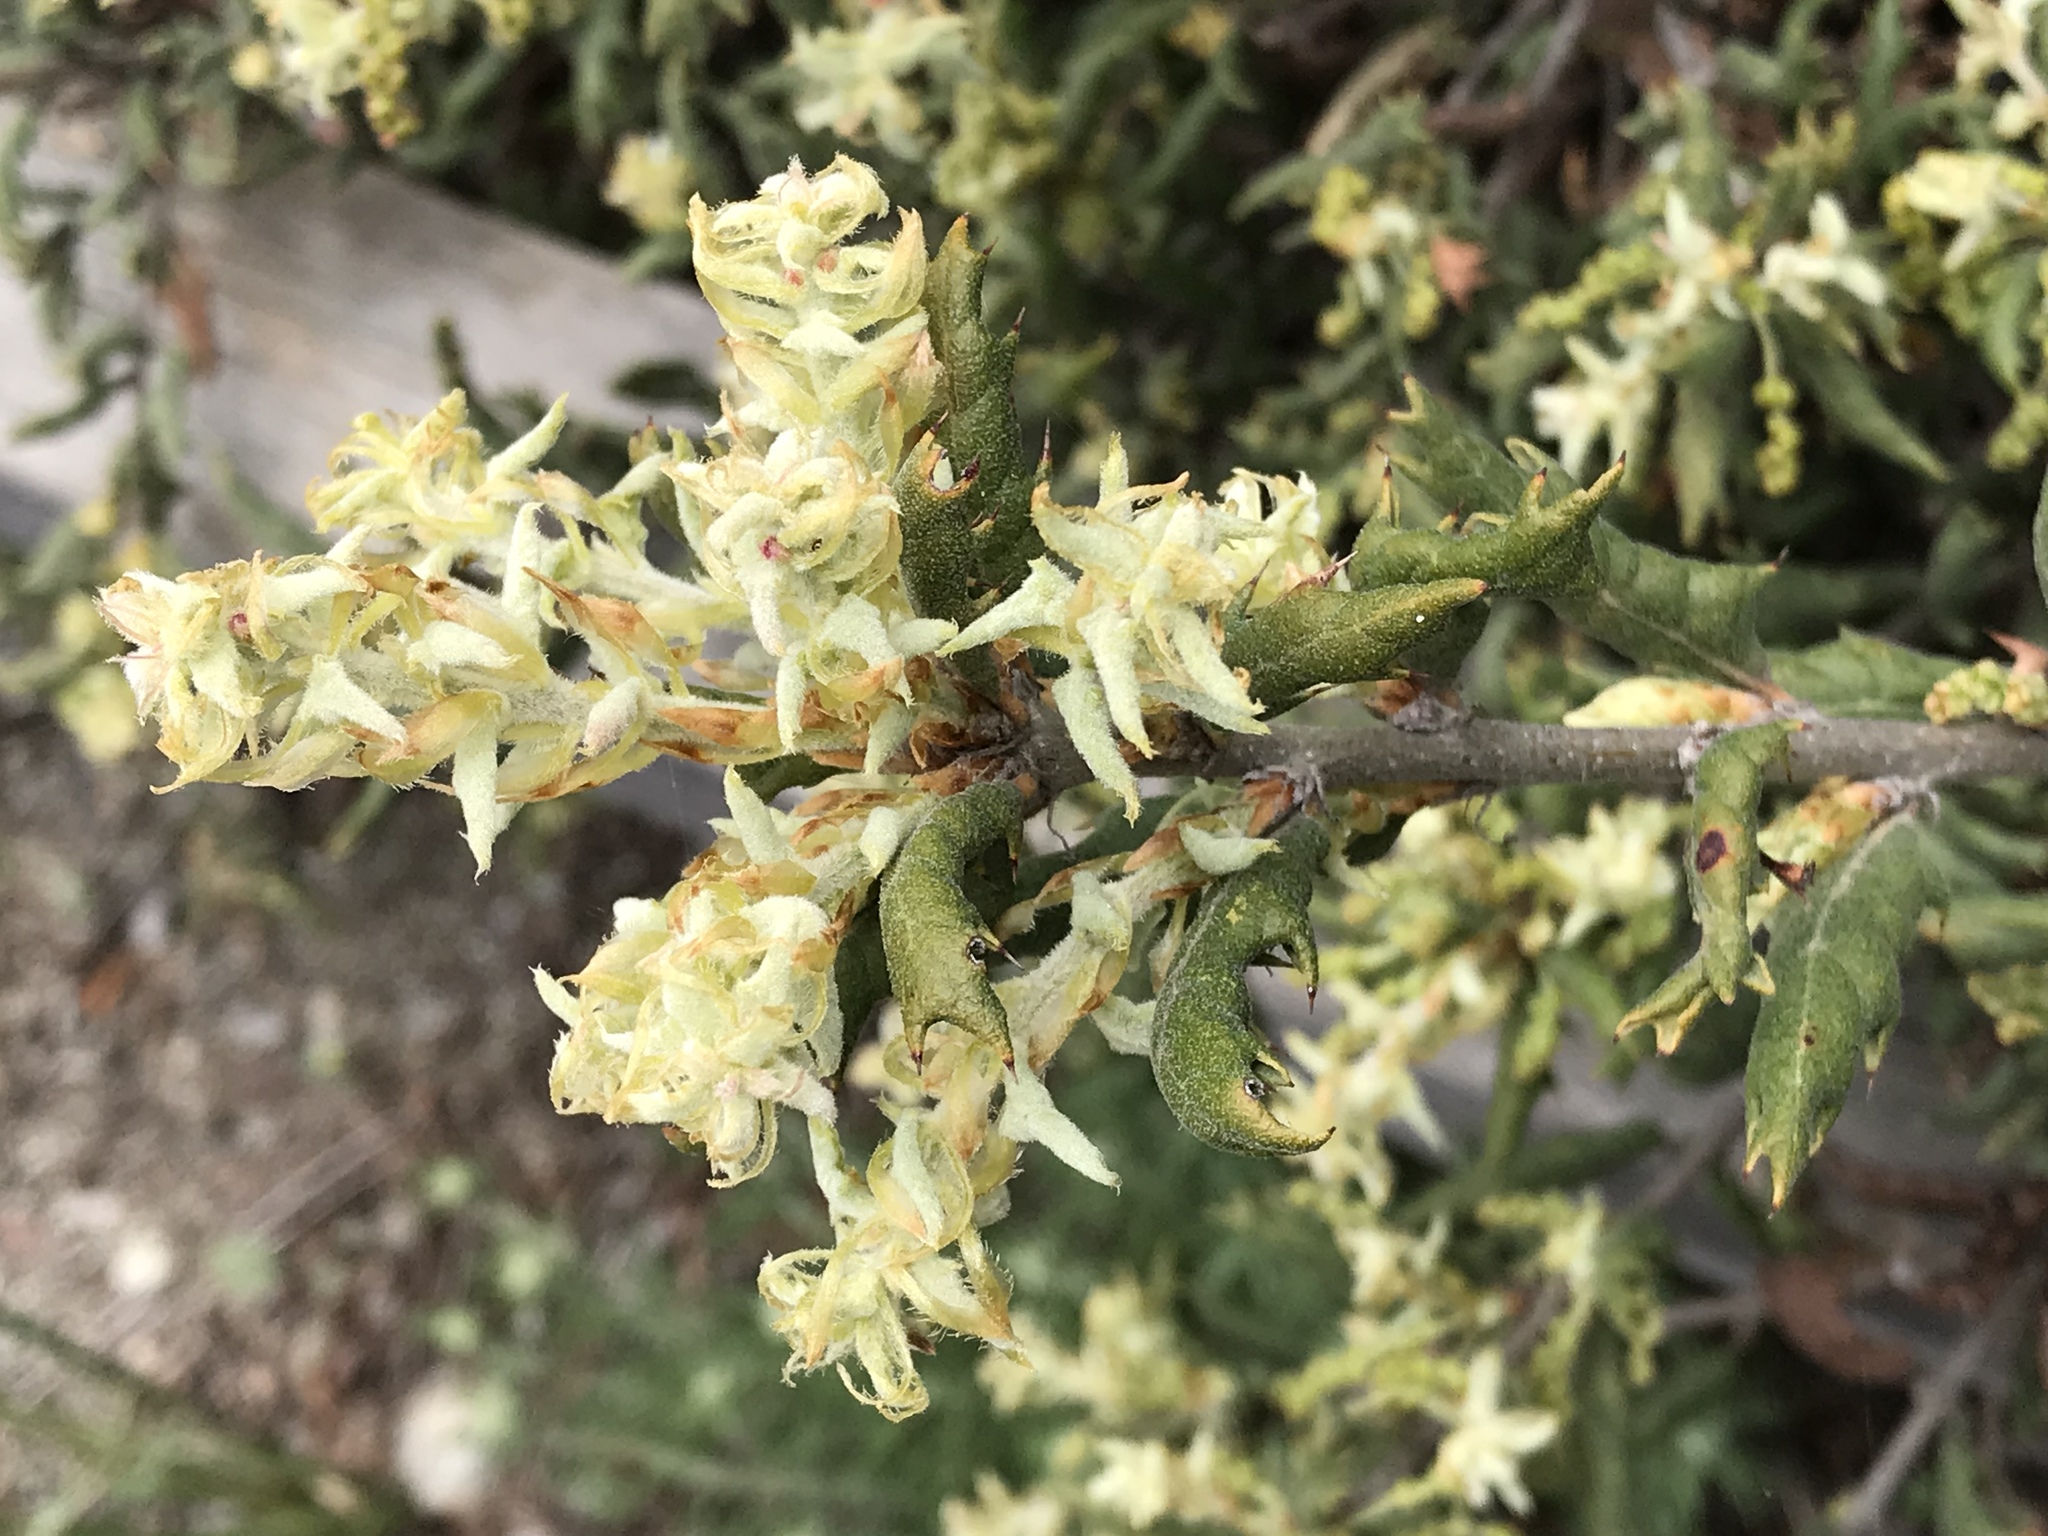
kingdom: Plantae
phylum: Tracheophyta
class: Magnoliopsida
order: Fagales
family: Fagaceae
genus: Quercus
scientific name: Quercus durata
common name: Leather oak
